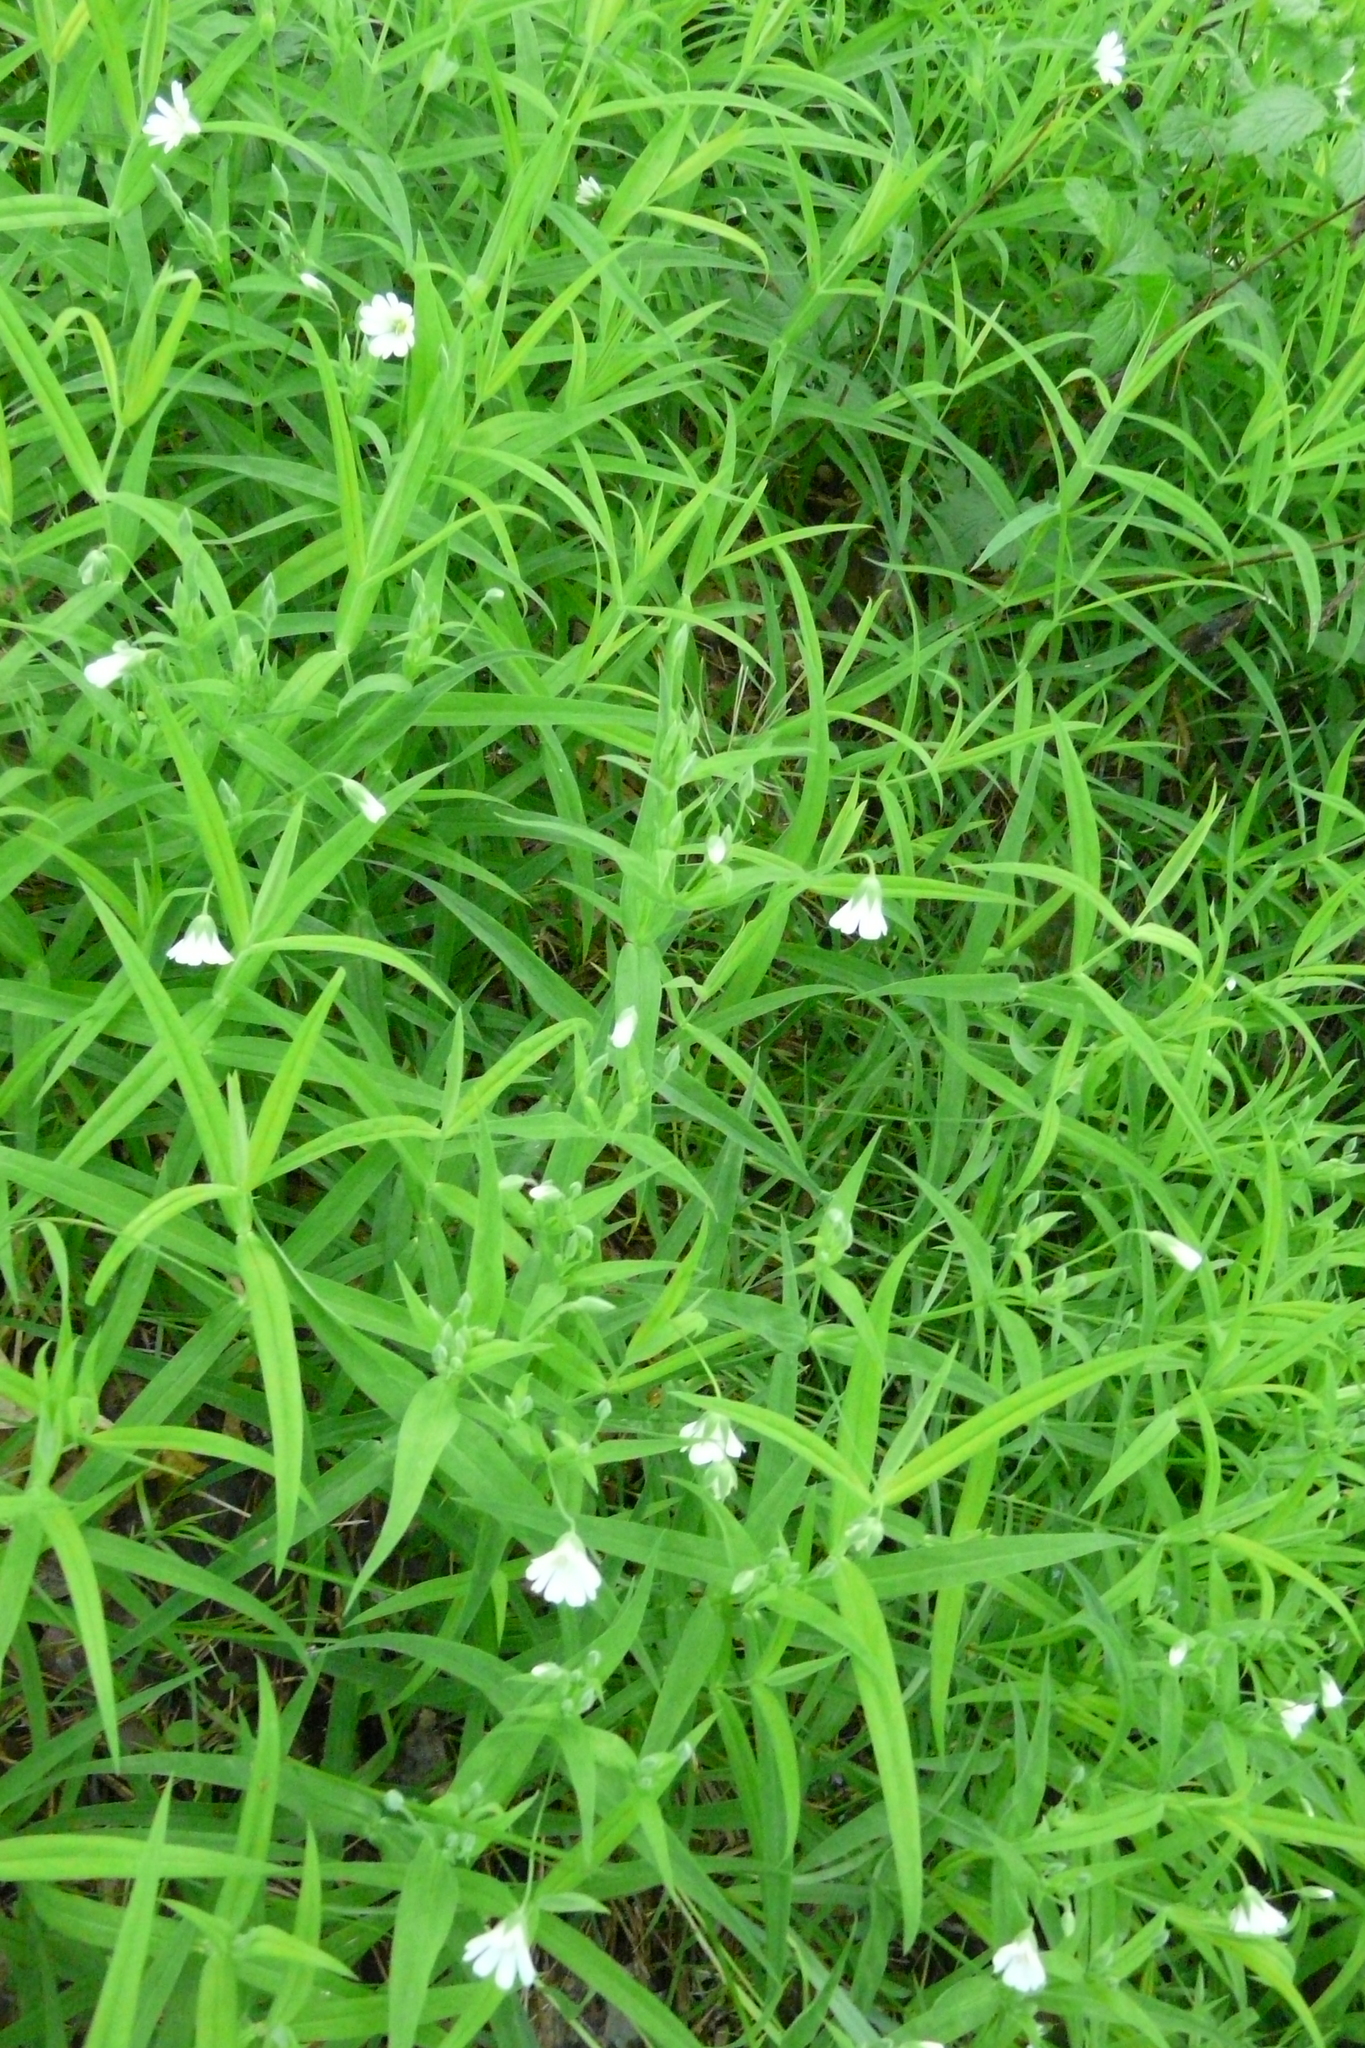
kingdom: Plantae
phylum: Tracheophyta
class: Magnoliopsida
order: Caryophyllales
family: Caryophyllaceae
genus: Rabelera
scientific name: Rabelera holostea
